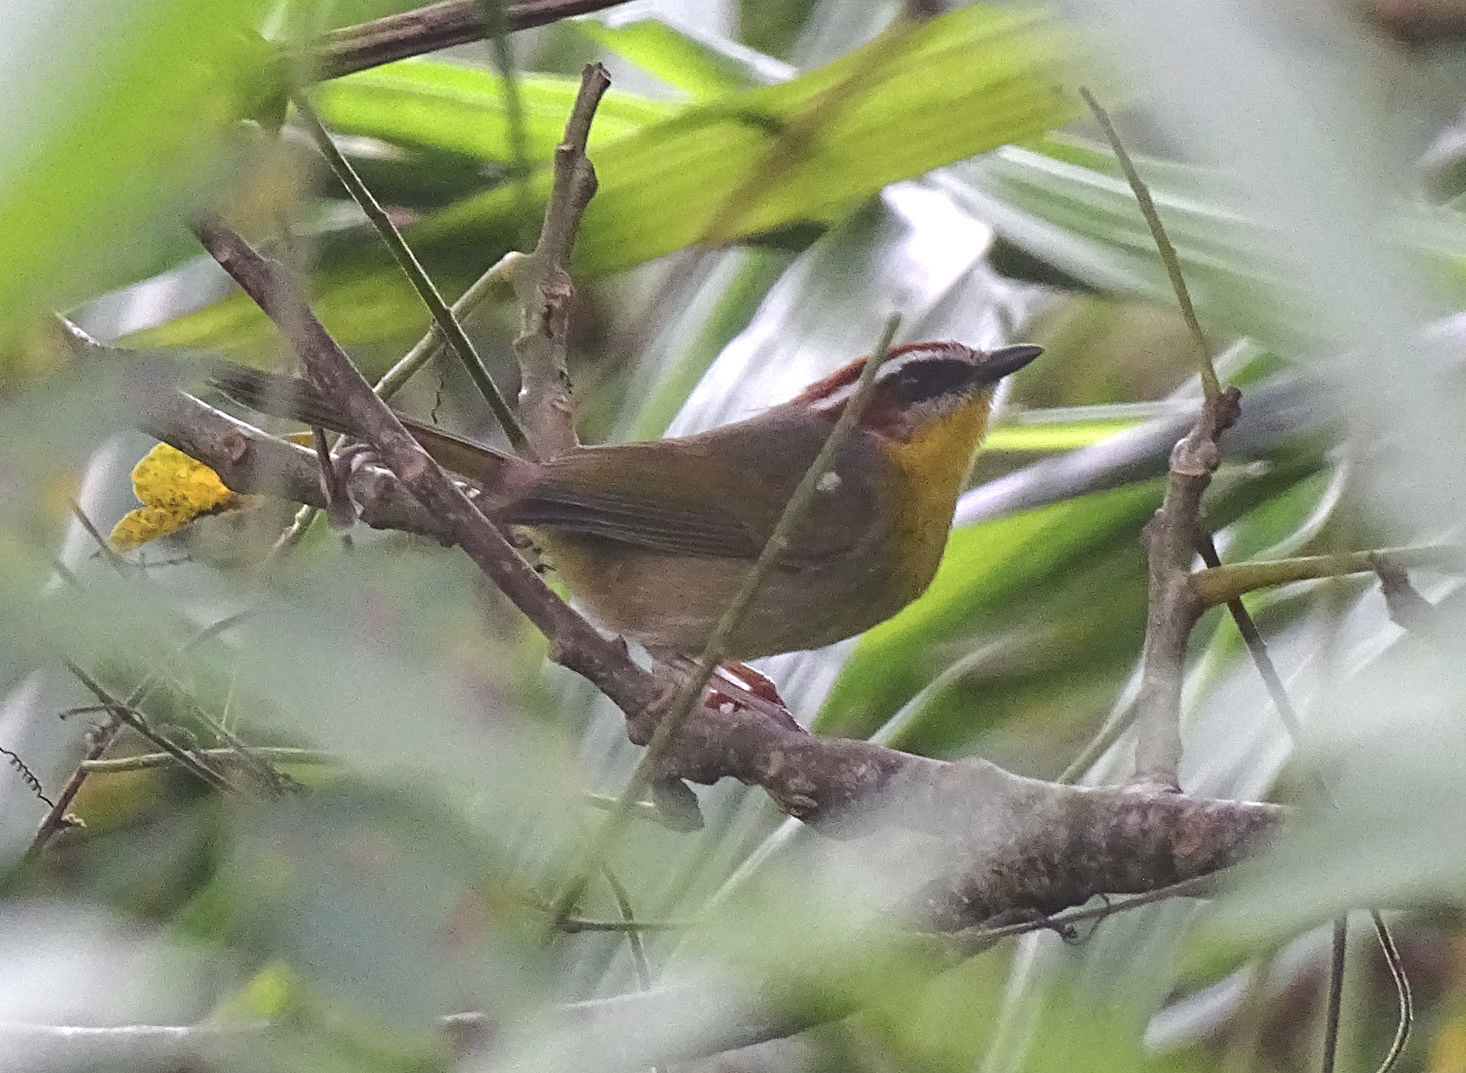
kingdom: Animalia
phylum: Chordata
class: Aves
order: Passeriformes
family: Parulidae
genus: Basileuterus
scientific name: Basileuterus rufifrons
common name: Rufous-capped warbler
